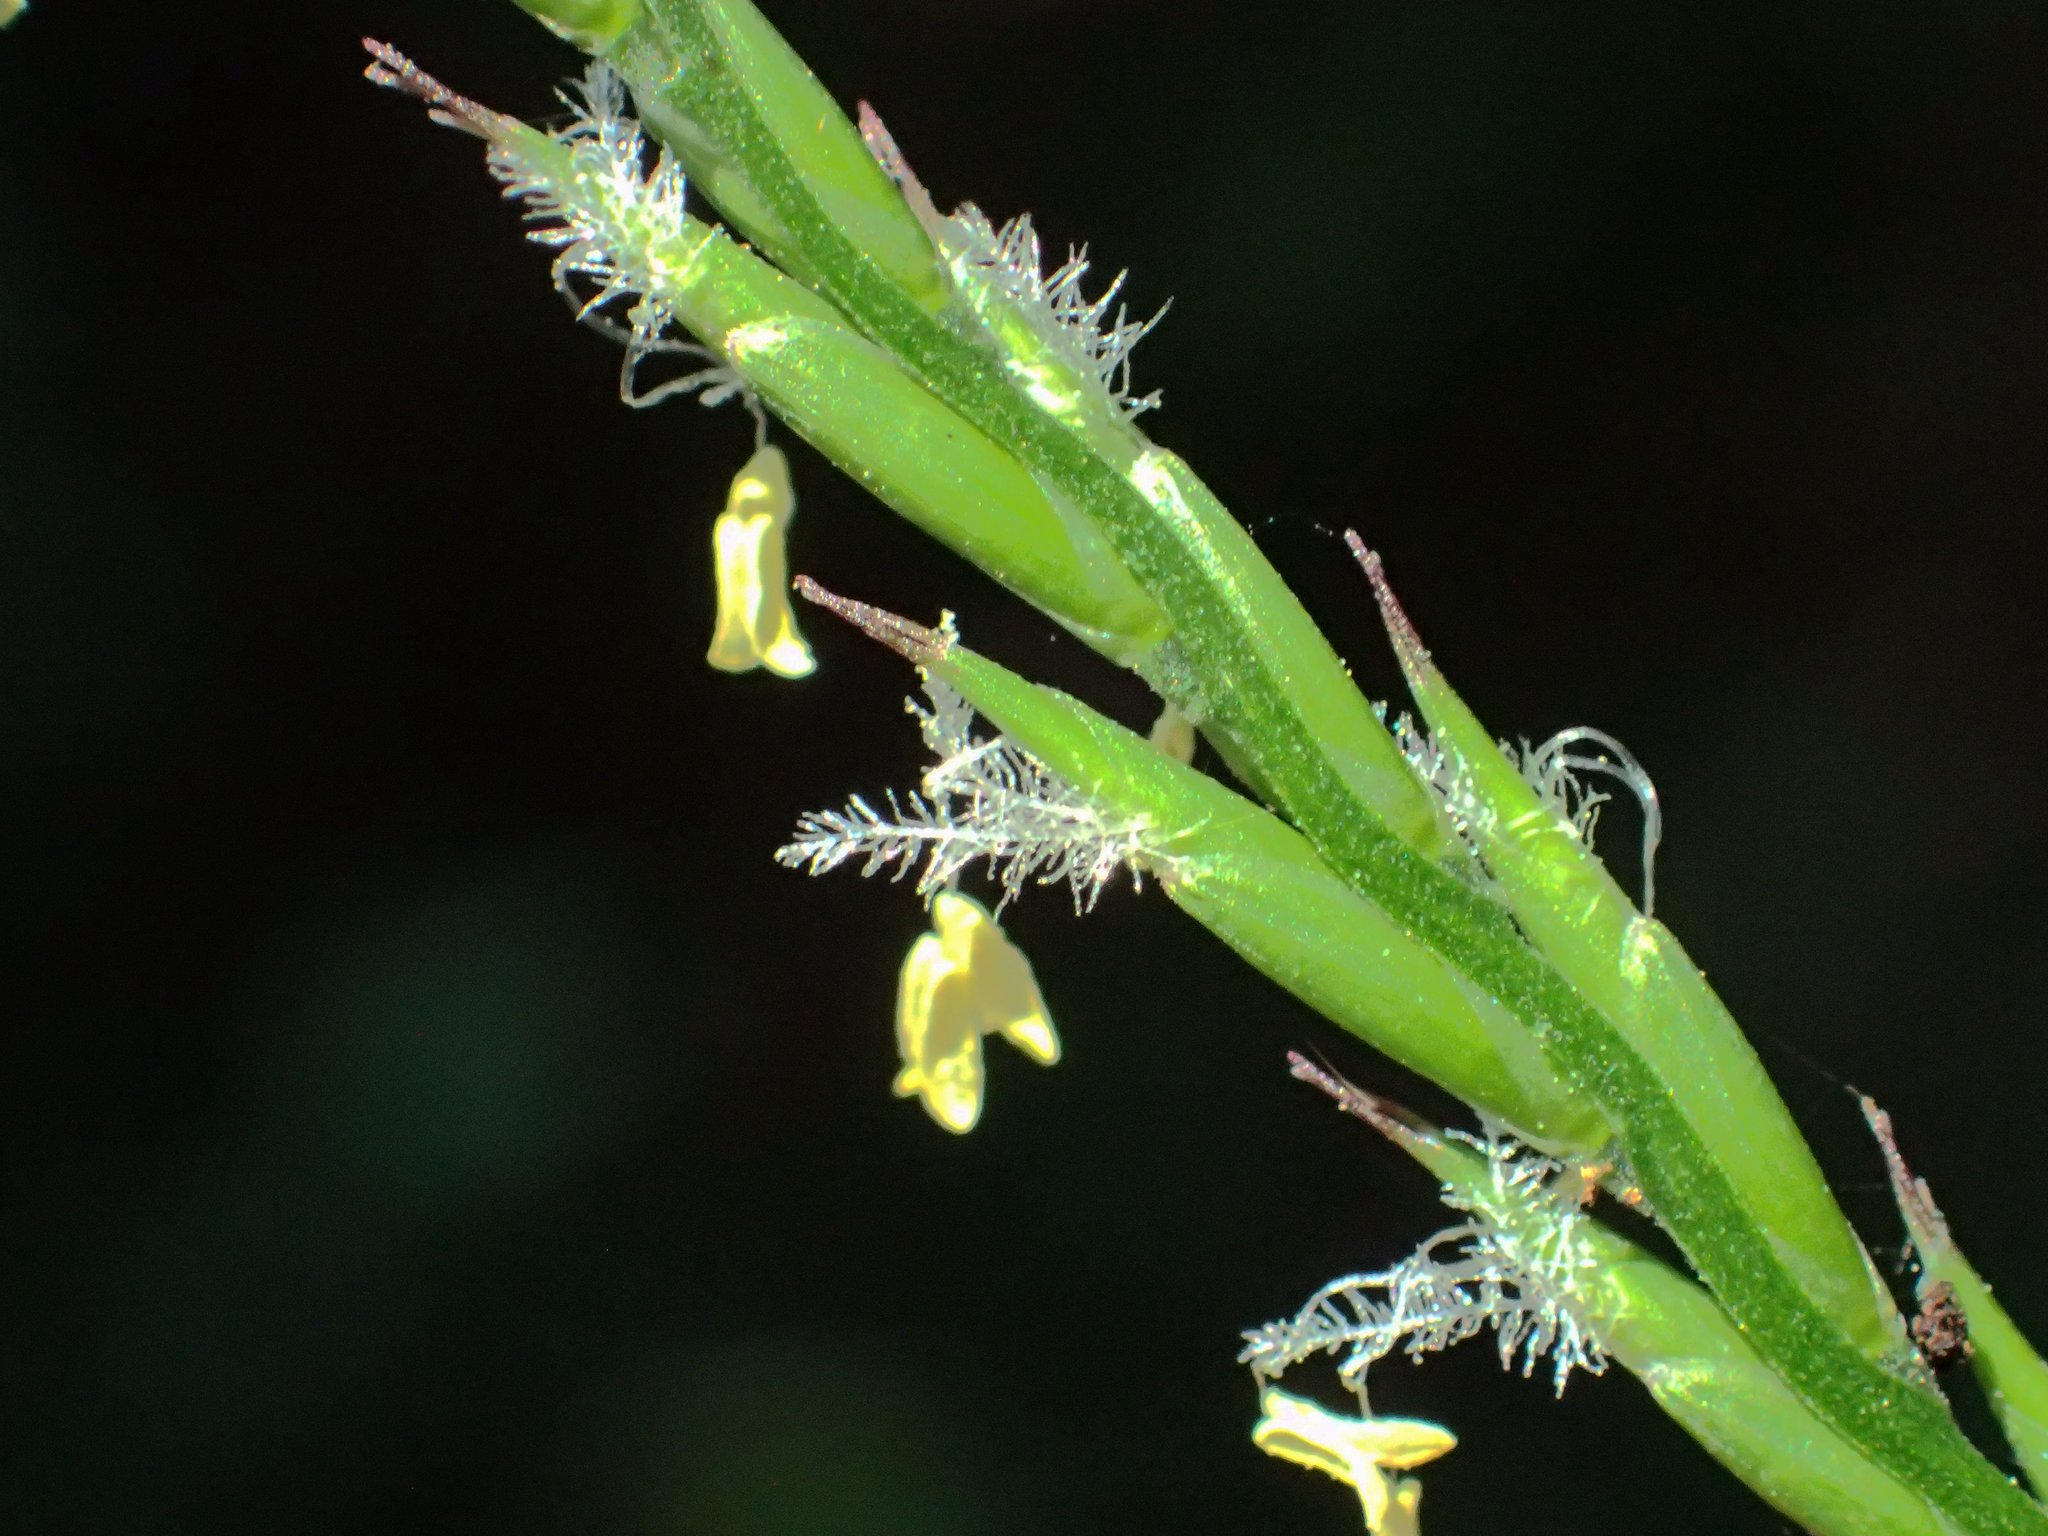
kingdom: Plantae
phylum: Tracheophyta
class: Liliopsida
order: Poales
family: Poaceae
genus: Lophatherum
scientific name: Lophatherum gracile
